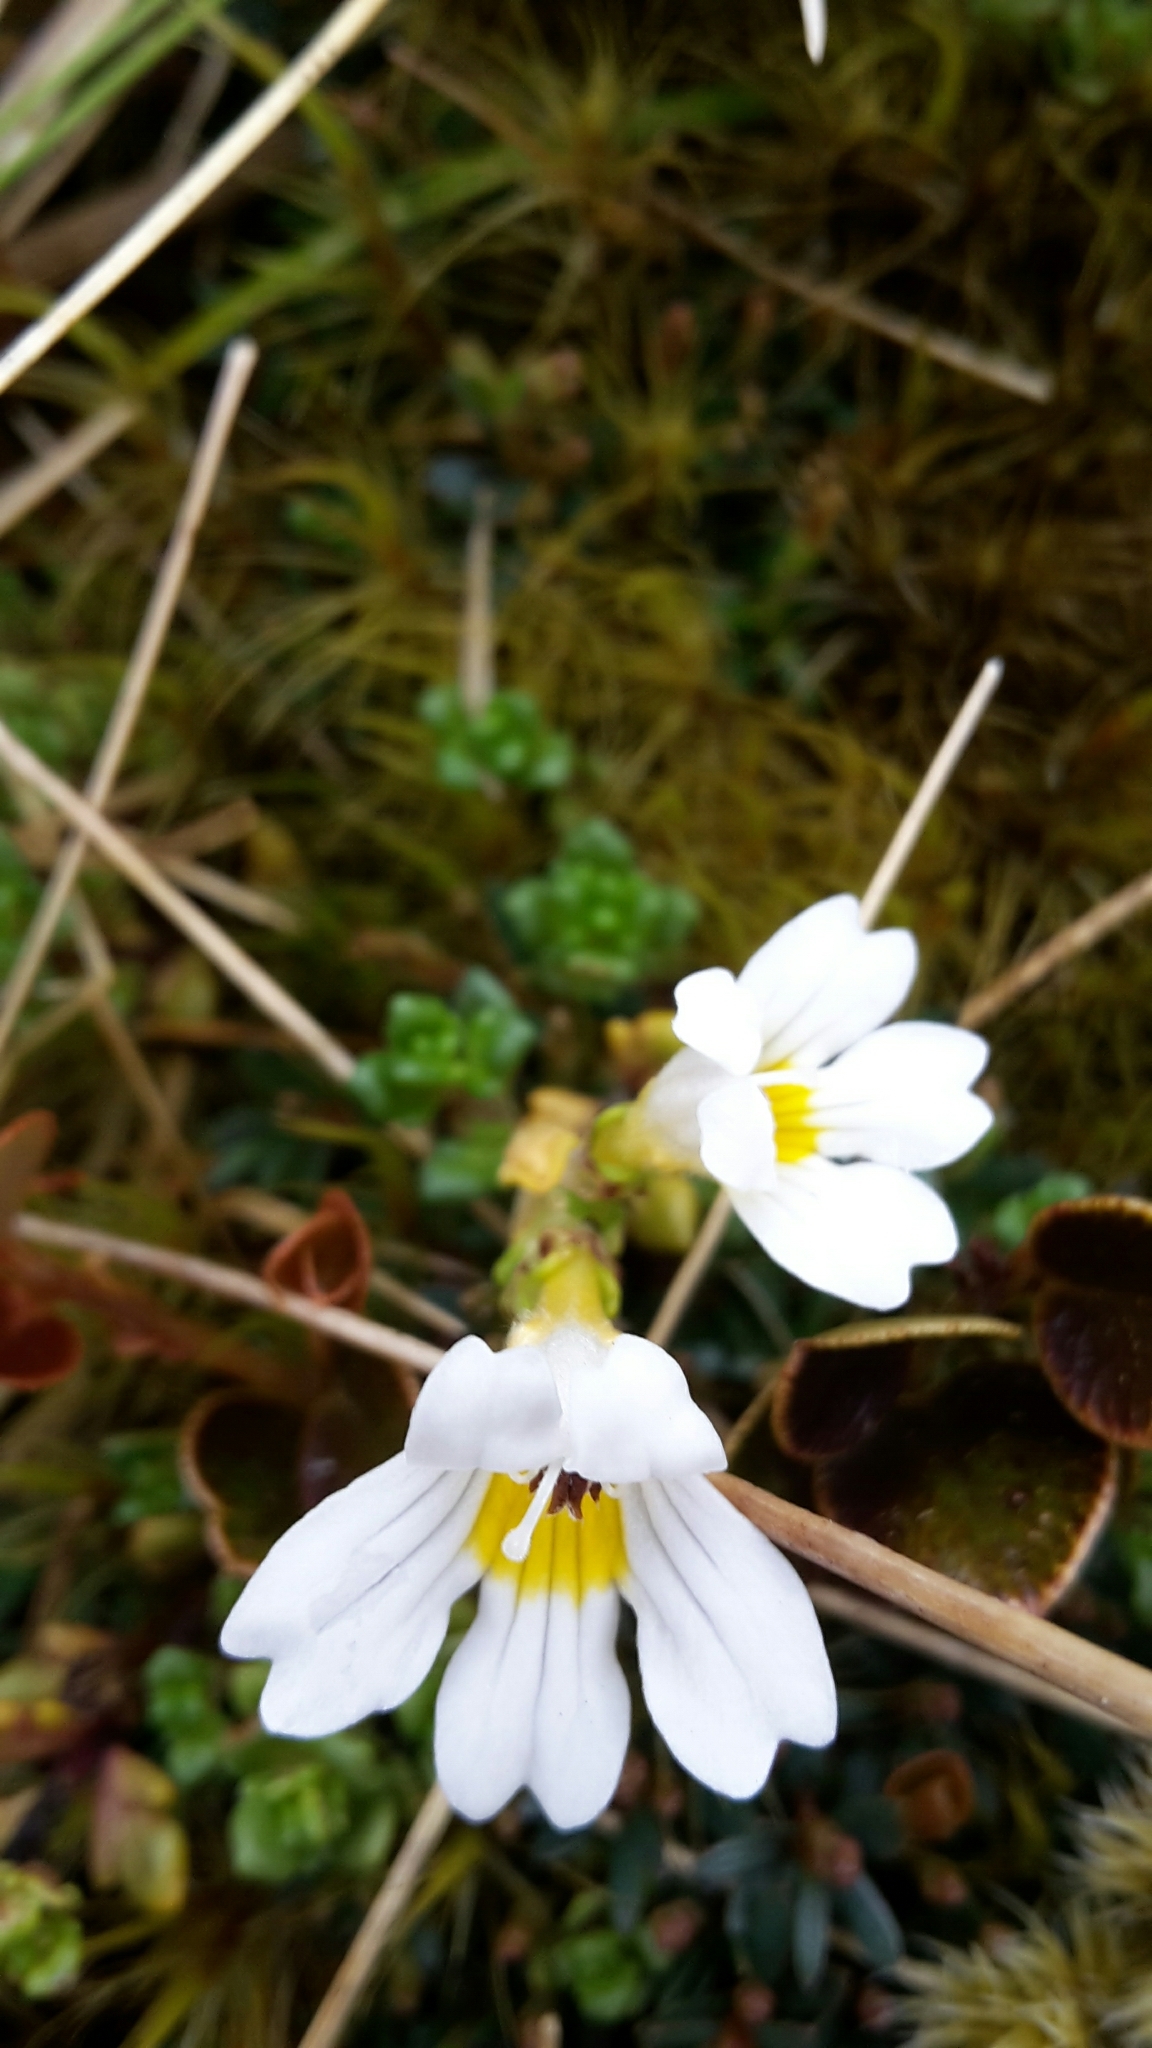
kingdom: Plantae
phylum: Tracheophyta
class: Magnoliopsida
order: Lamiales
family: Orobanchaceae
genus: Euphrasia
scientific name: Euphrasia revoluta
